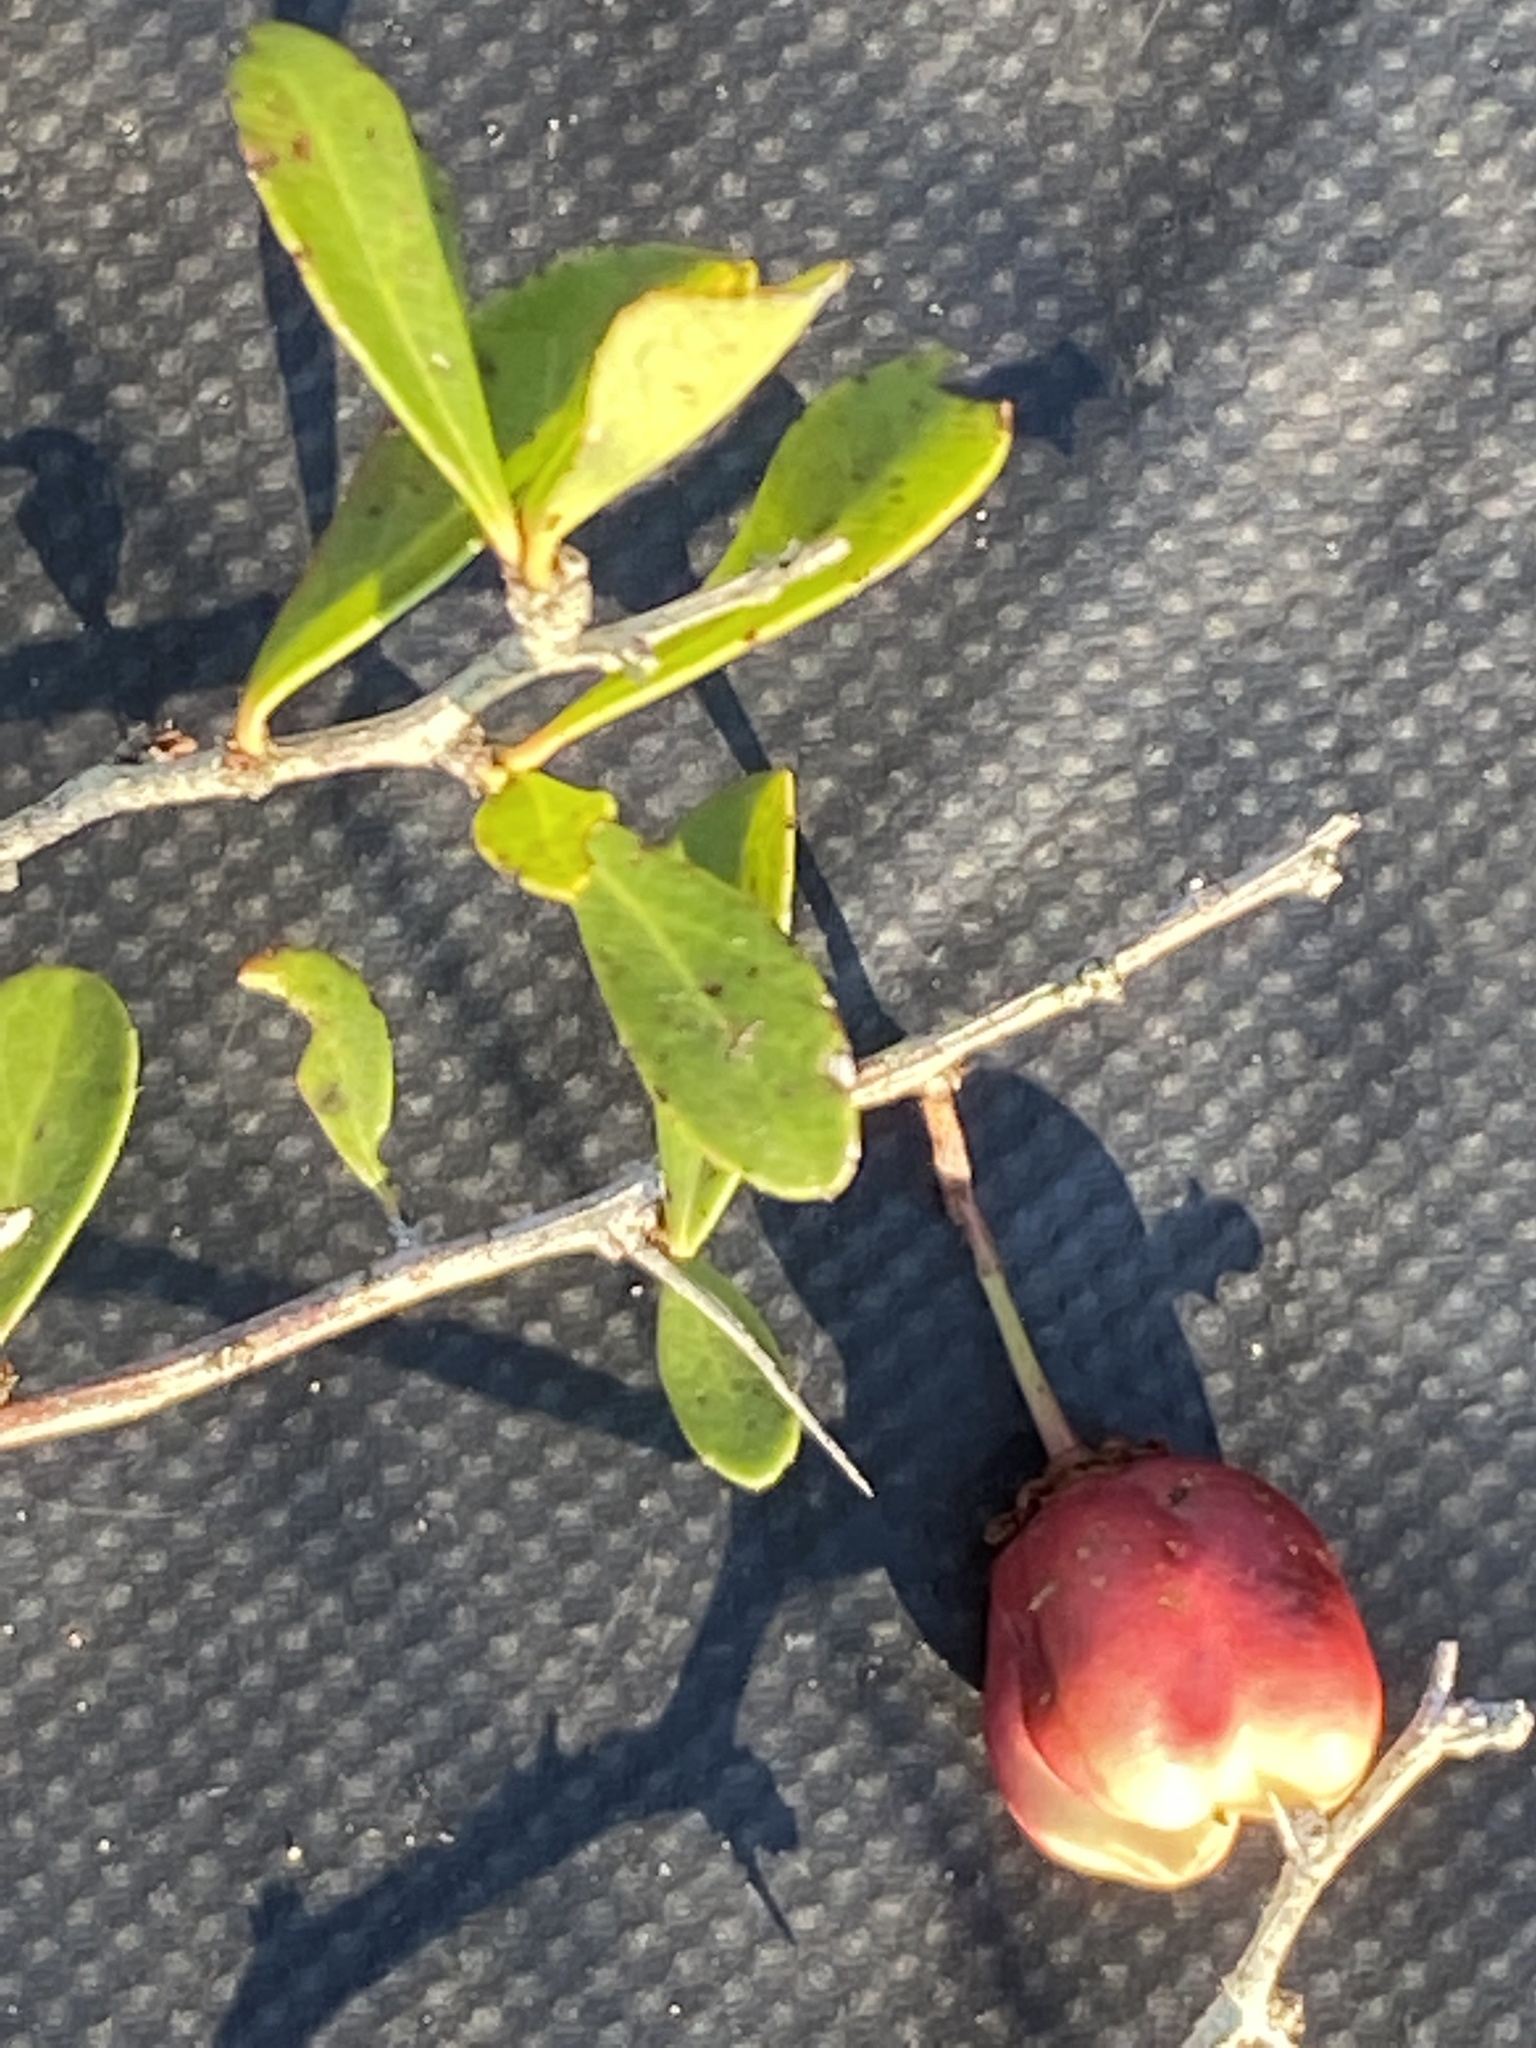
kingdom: Plantae
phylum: Tracheophyta
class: Magnoliopsida
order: Celastrales
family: Celastraceae
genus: Putterlickia
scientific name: Putterlickia pyracantha
